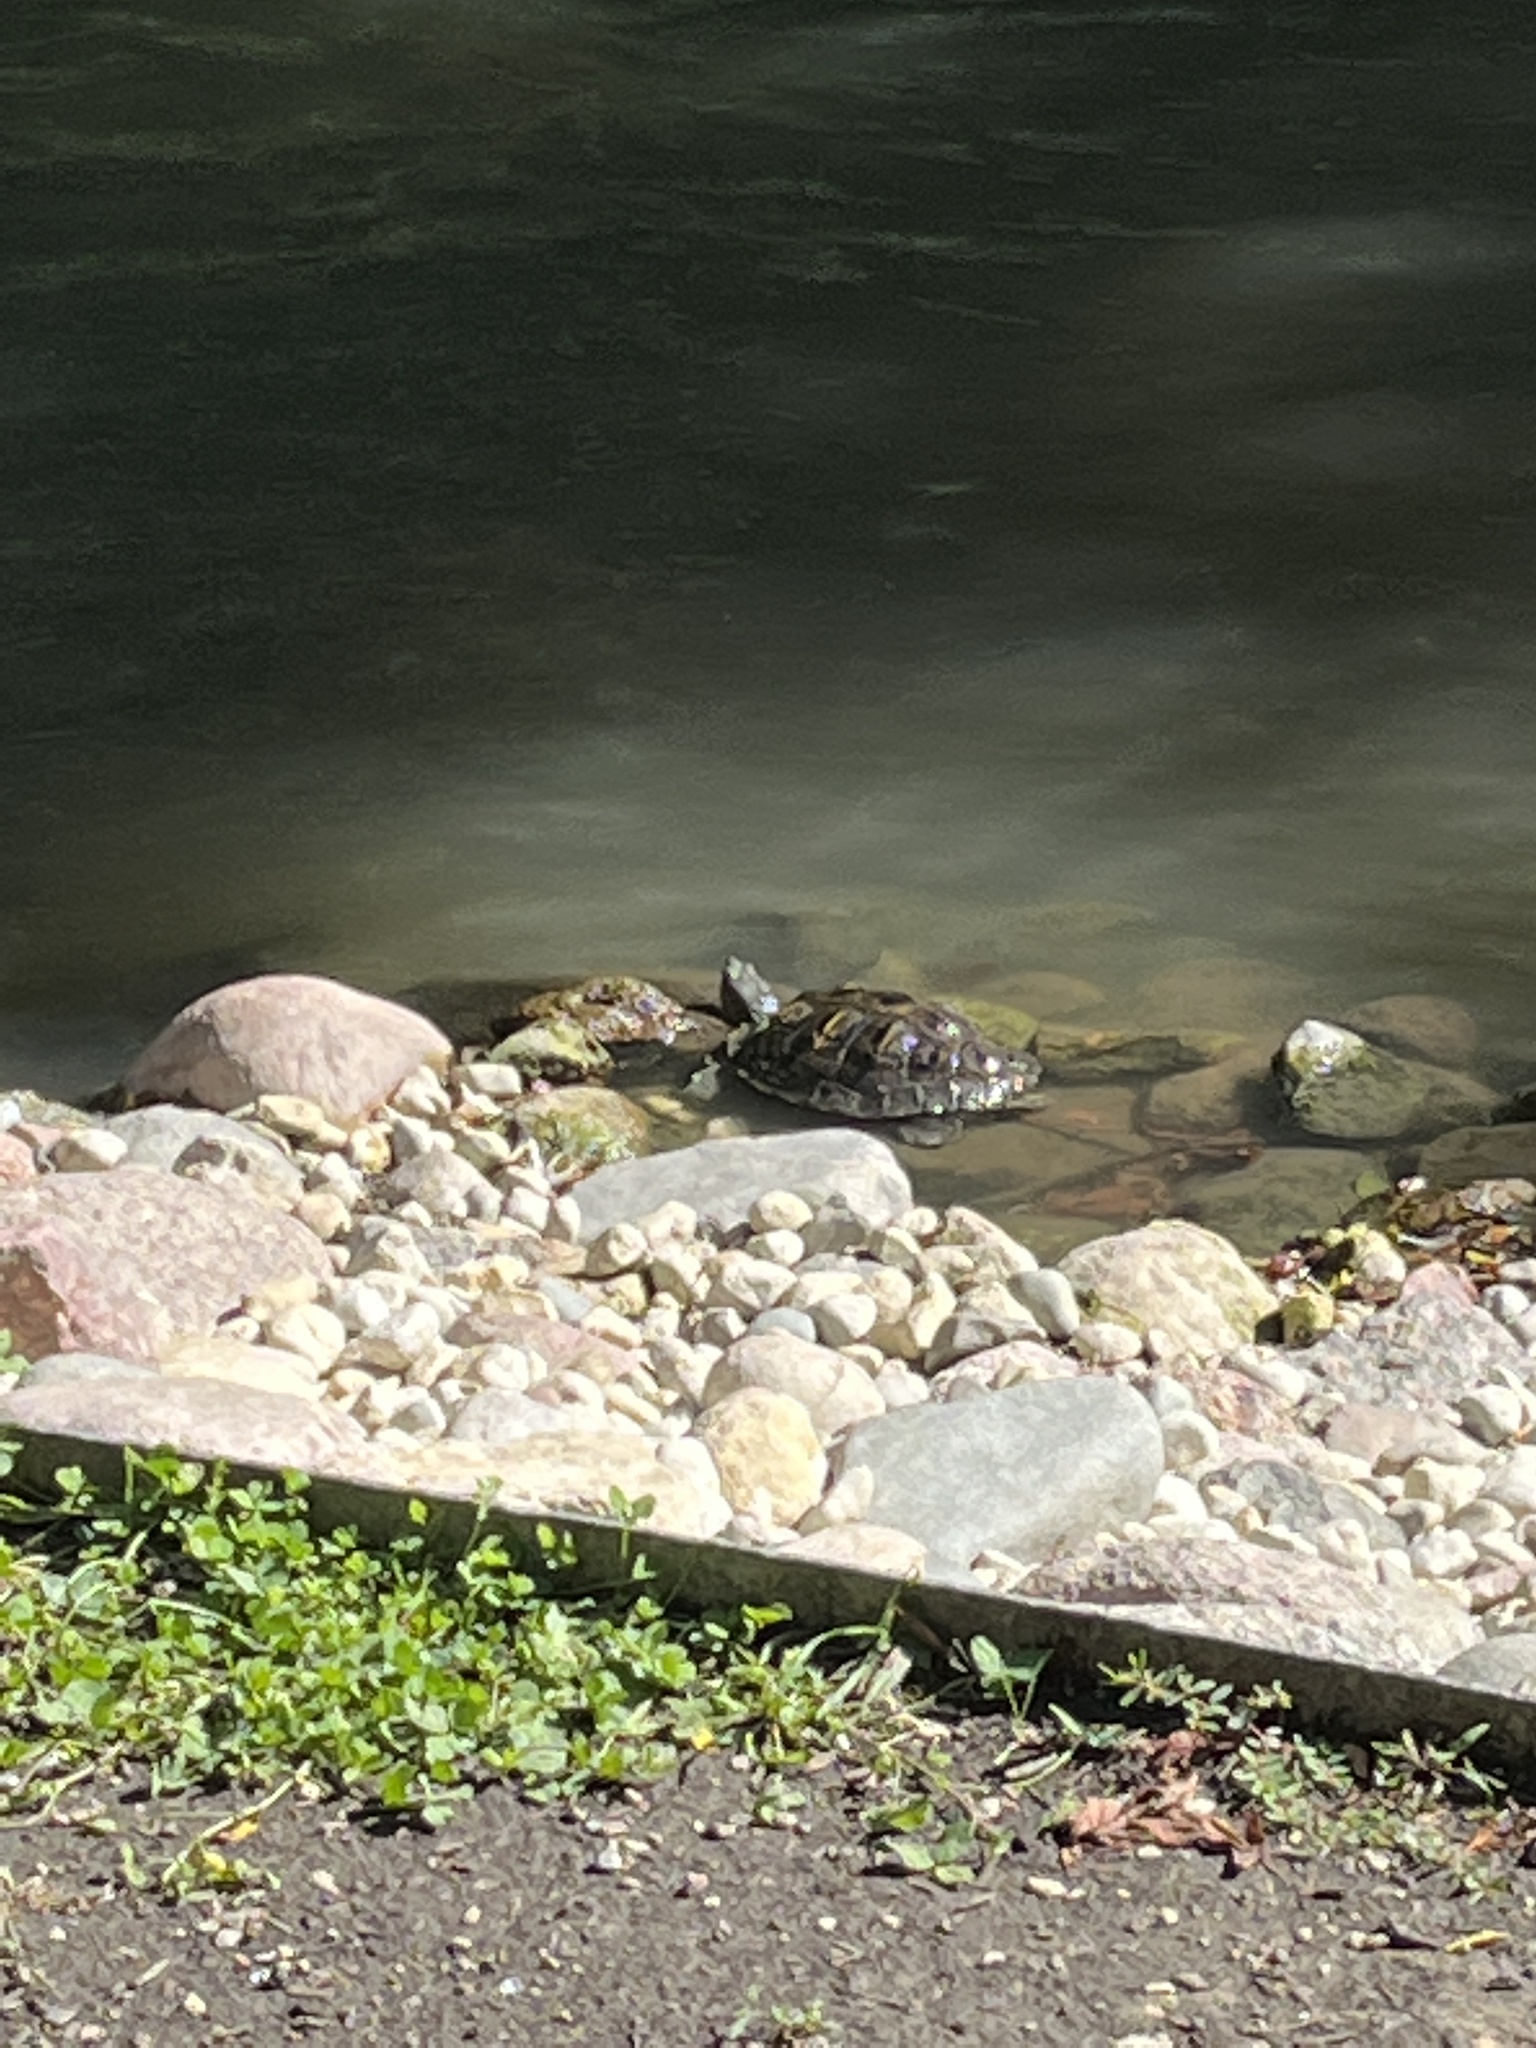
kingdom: Animalia
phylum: Chordata
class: Testudines
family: Emydidae
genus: Trachemys
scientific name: Trachemys scripta
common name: Slider
